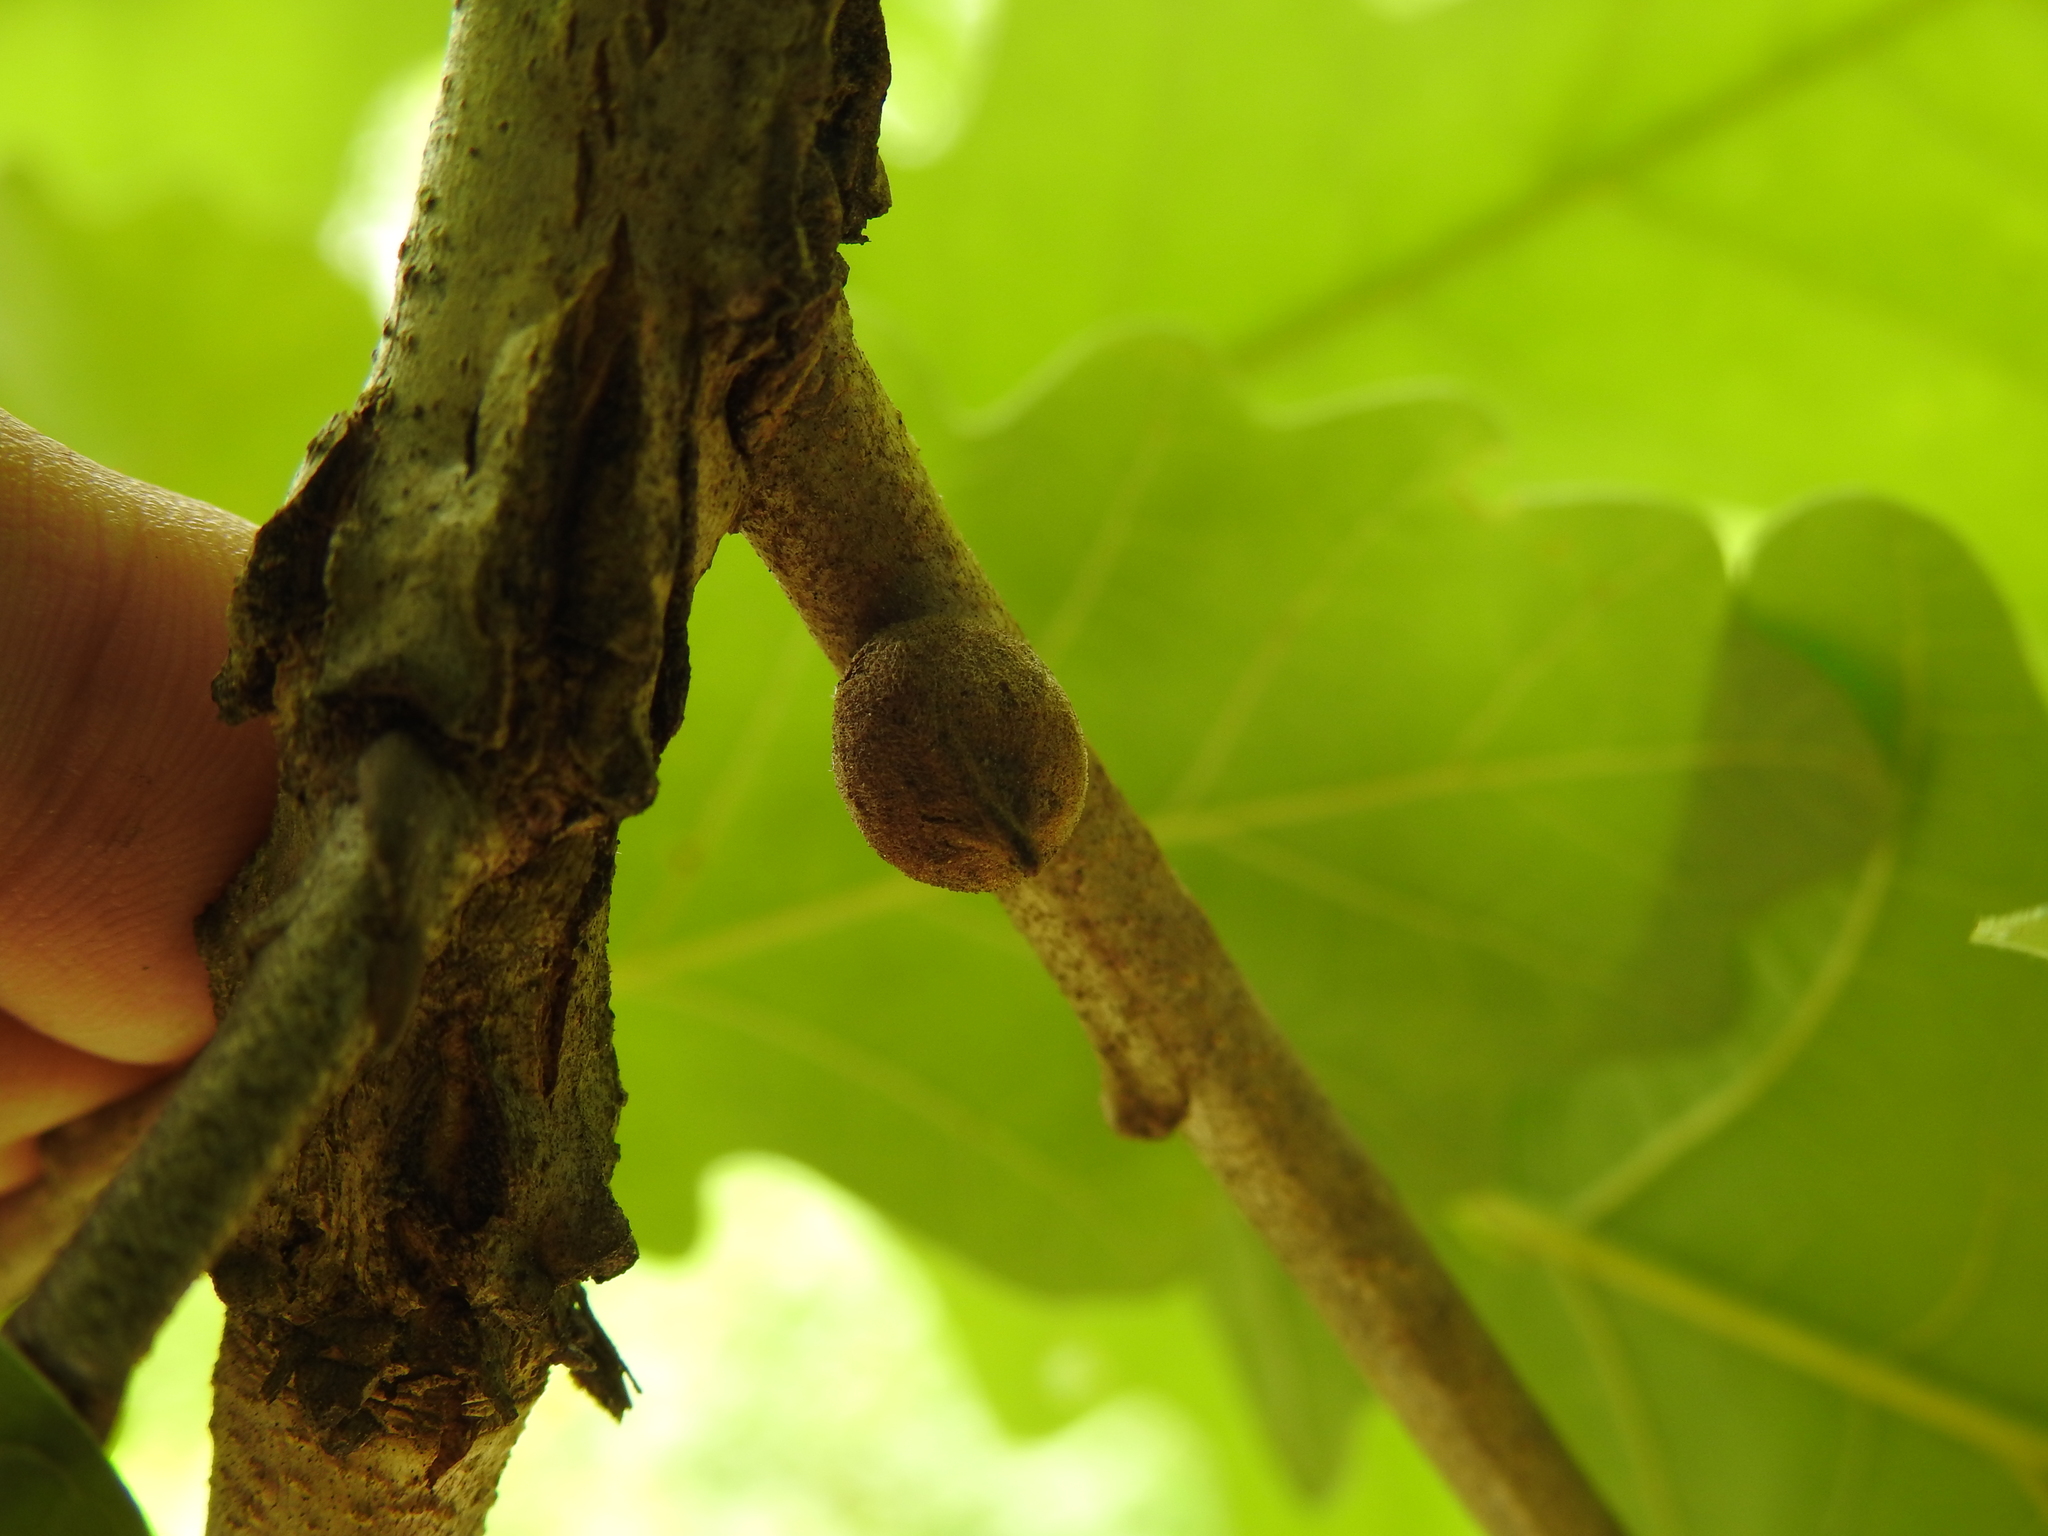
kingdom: Animalia
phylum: Arthropoda
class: Insecta
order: Hymenoptera
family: Cynipidae
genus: Disholcaspis
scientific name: Disholcaspis
